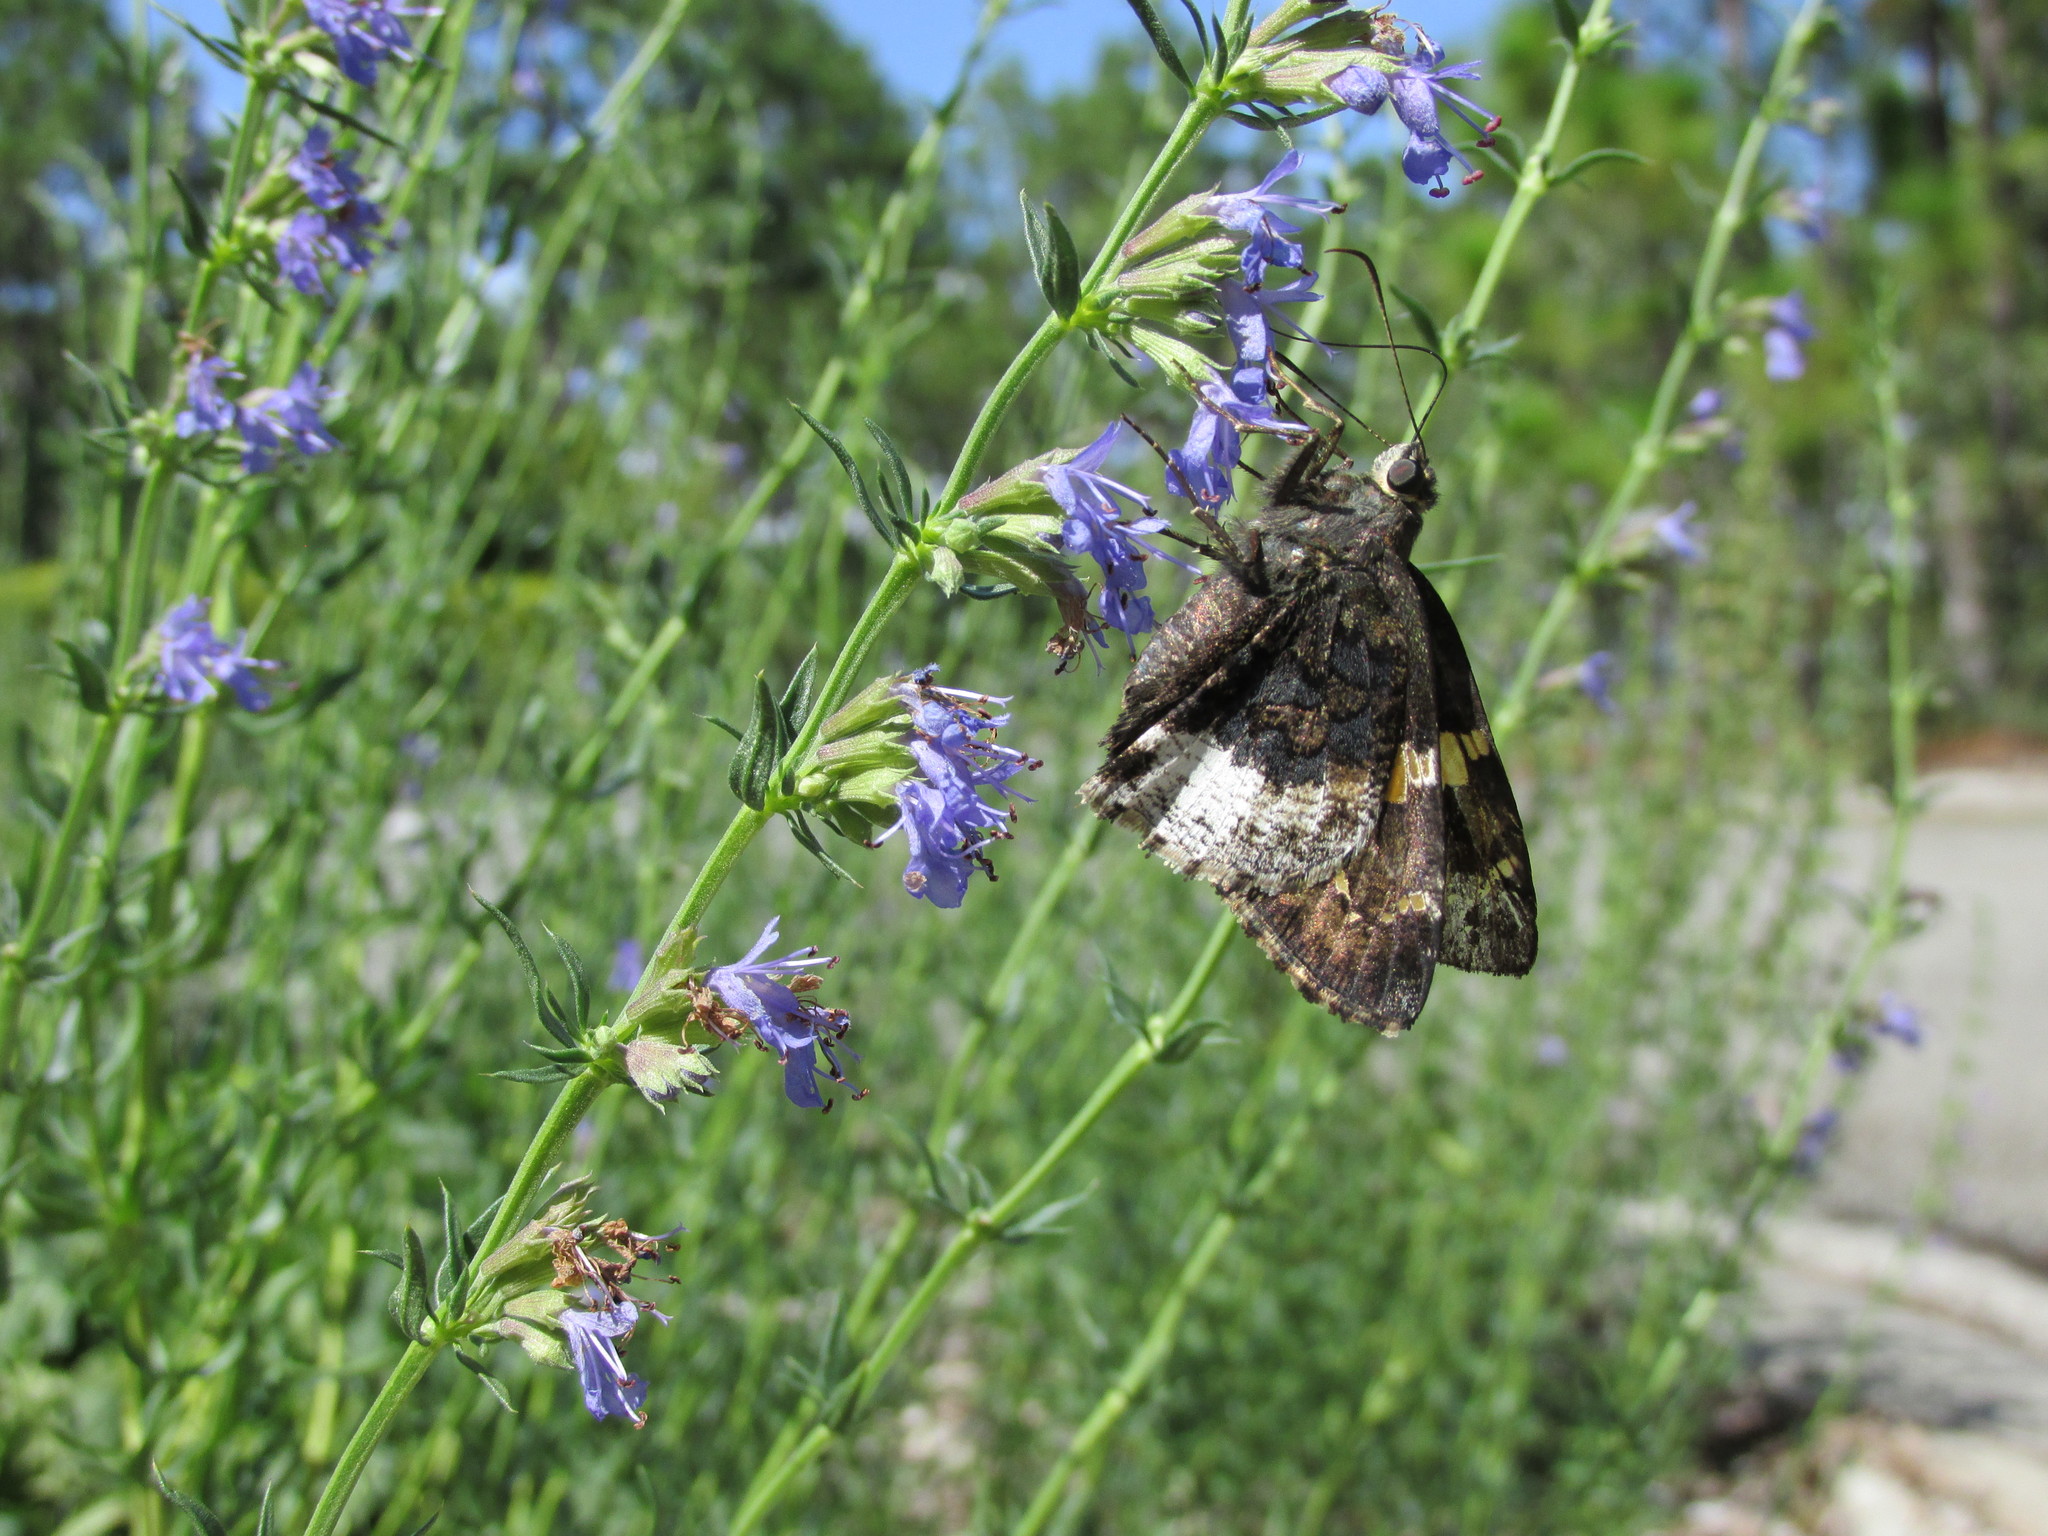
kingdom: Animalia
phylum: Arthropoda
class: Insecta
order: Lepidoptera
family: Hesperiidae
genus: Thorybes
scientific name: Thorybes lyciades
